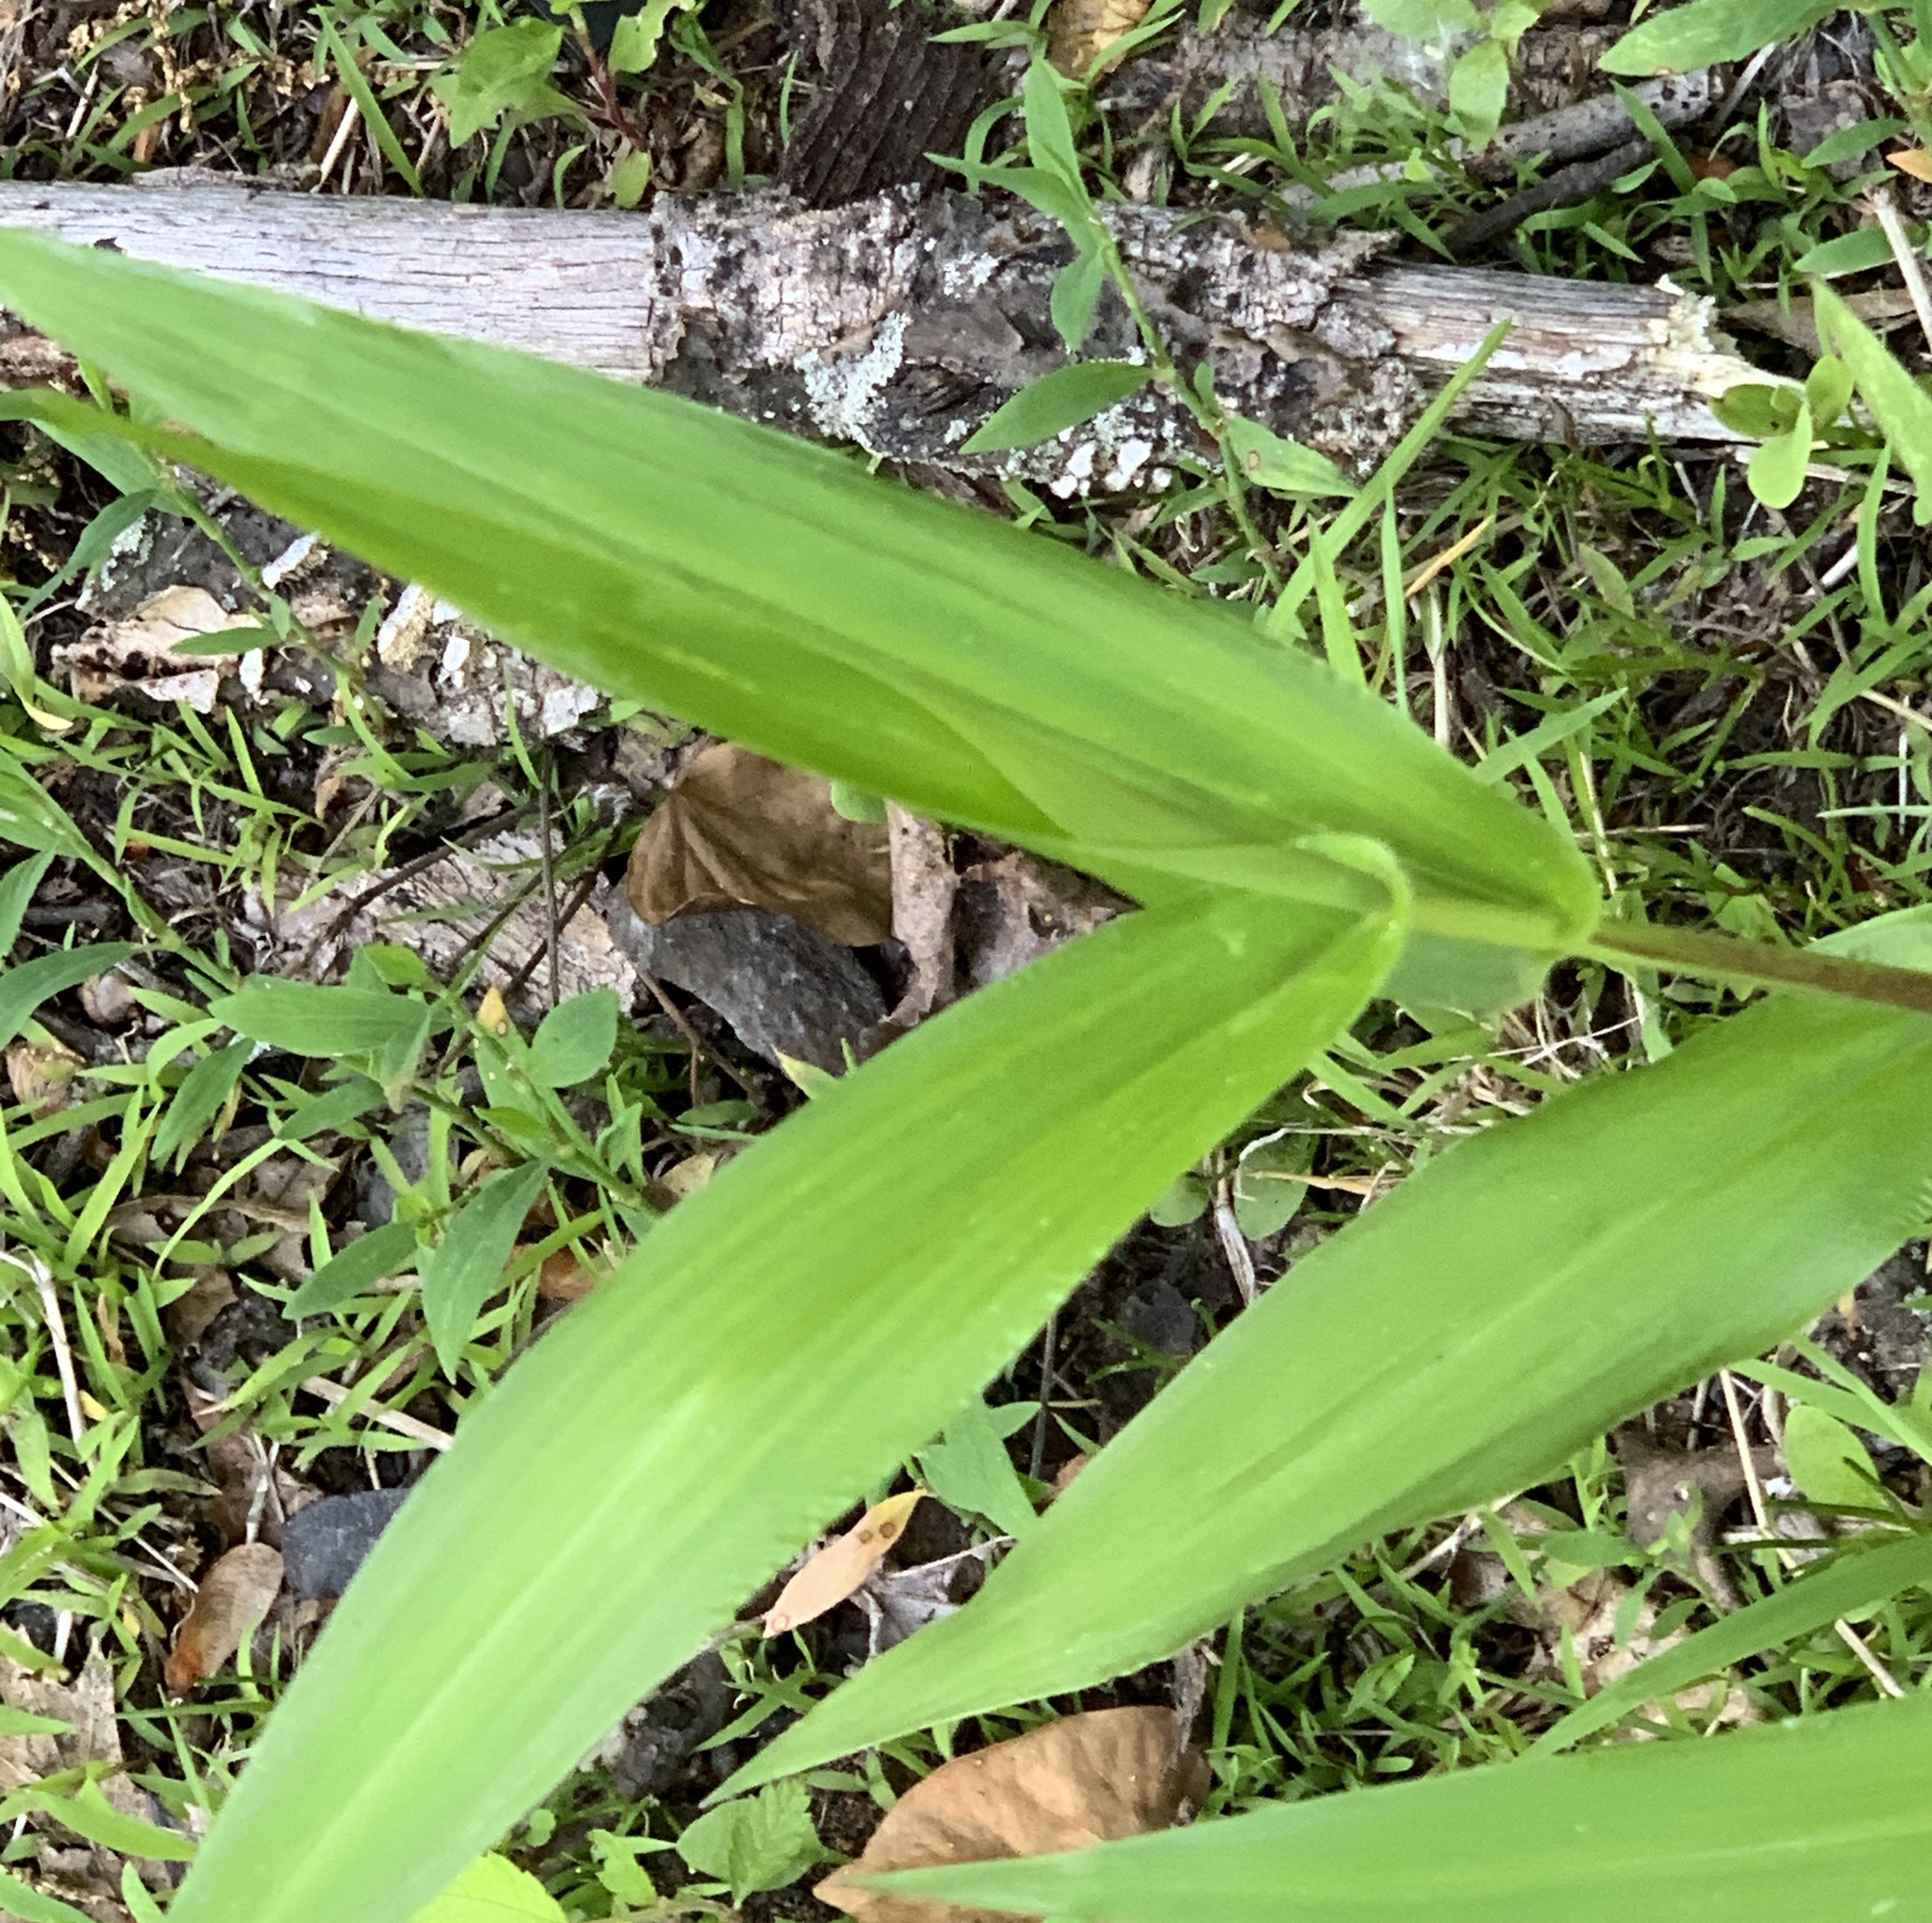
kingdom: Plantae
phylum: Tracheophyta
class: Liliopsida
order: Poales
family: Poaceae
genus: Dichanthelium
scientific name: Dichanthelium clandestinum
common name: Deer-tongue grass
